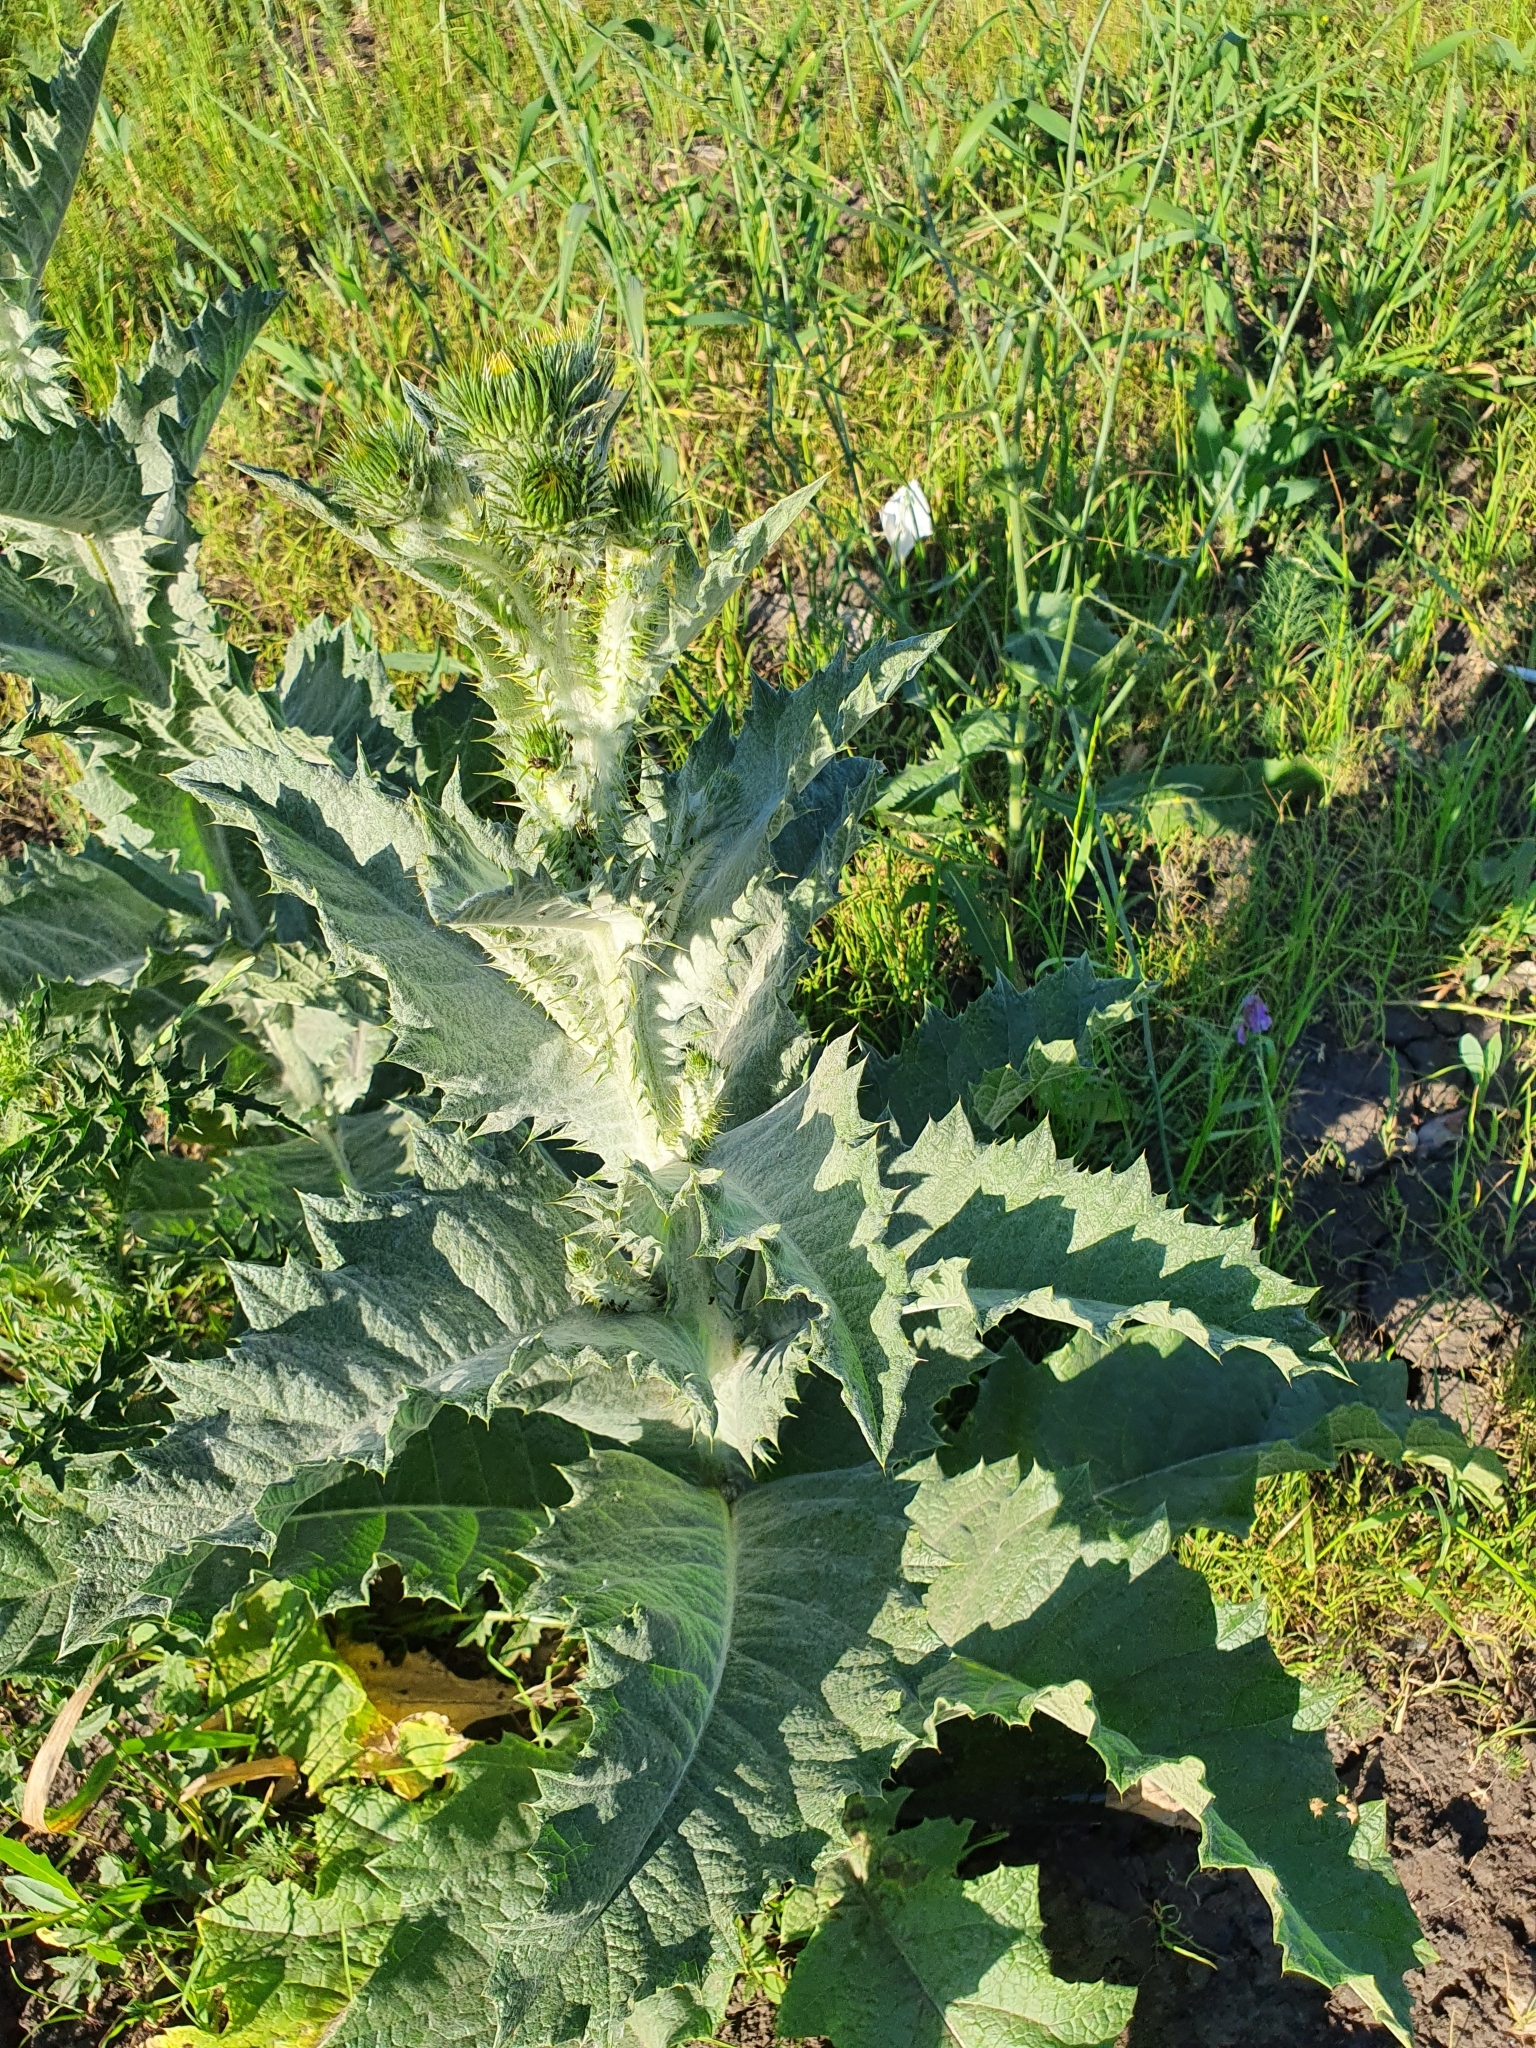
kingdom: Plantae
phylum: Tracheophyta
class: Magnoliopsida
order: Asterales
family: Asteraceae
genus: Onopordum
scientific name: Onopordum acanthium
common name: Scotch thistle
